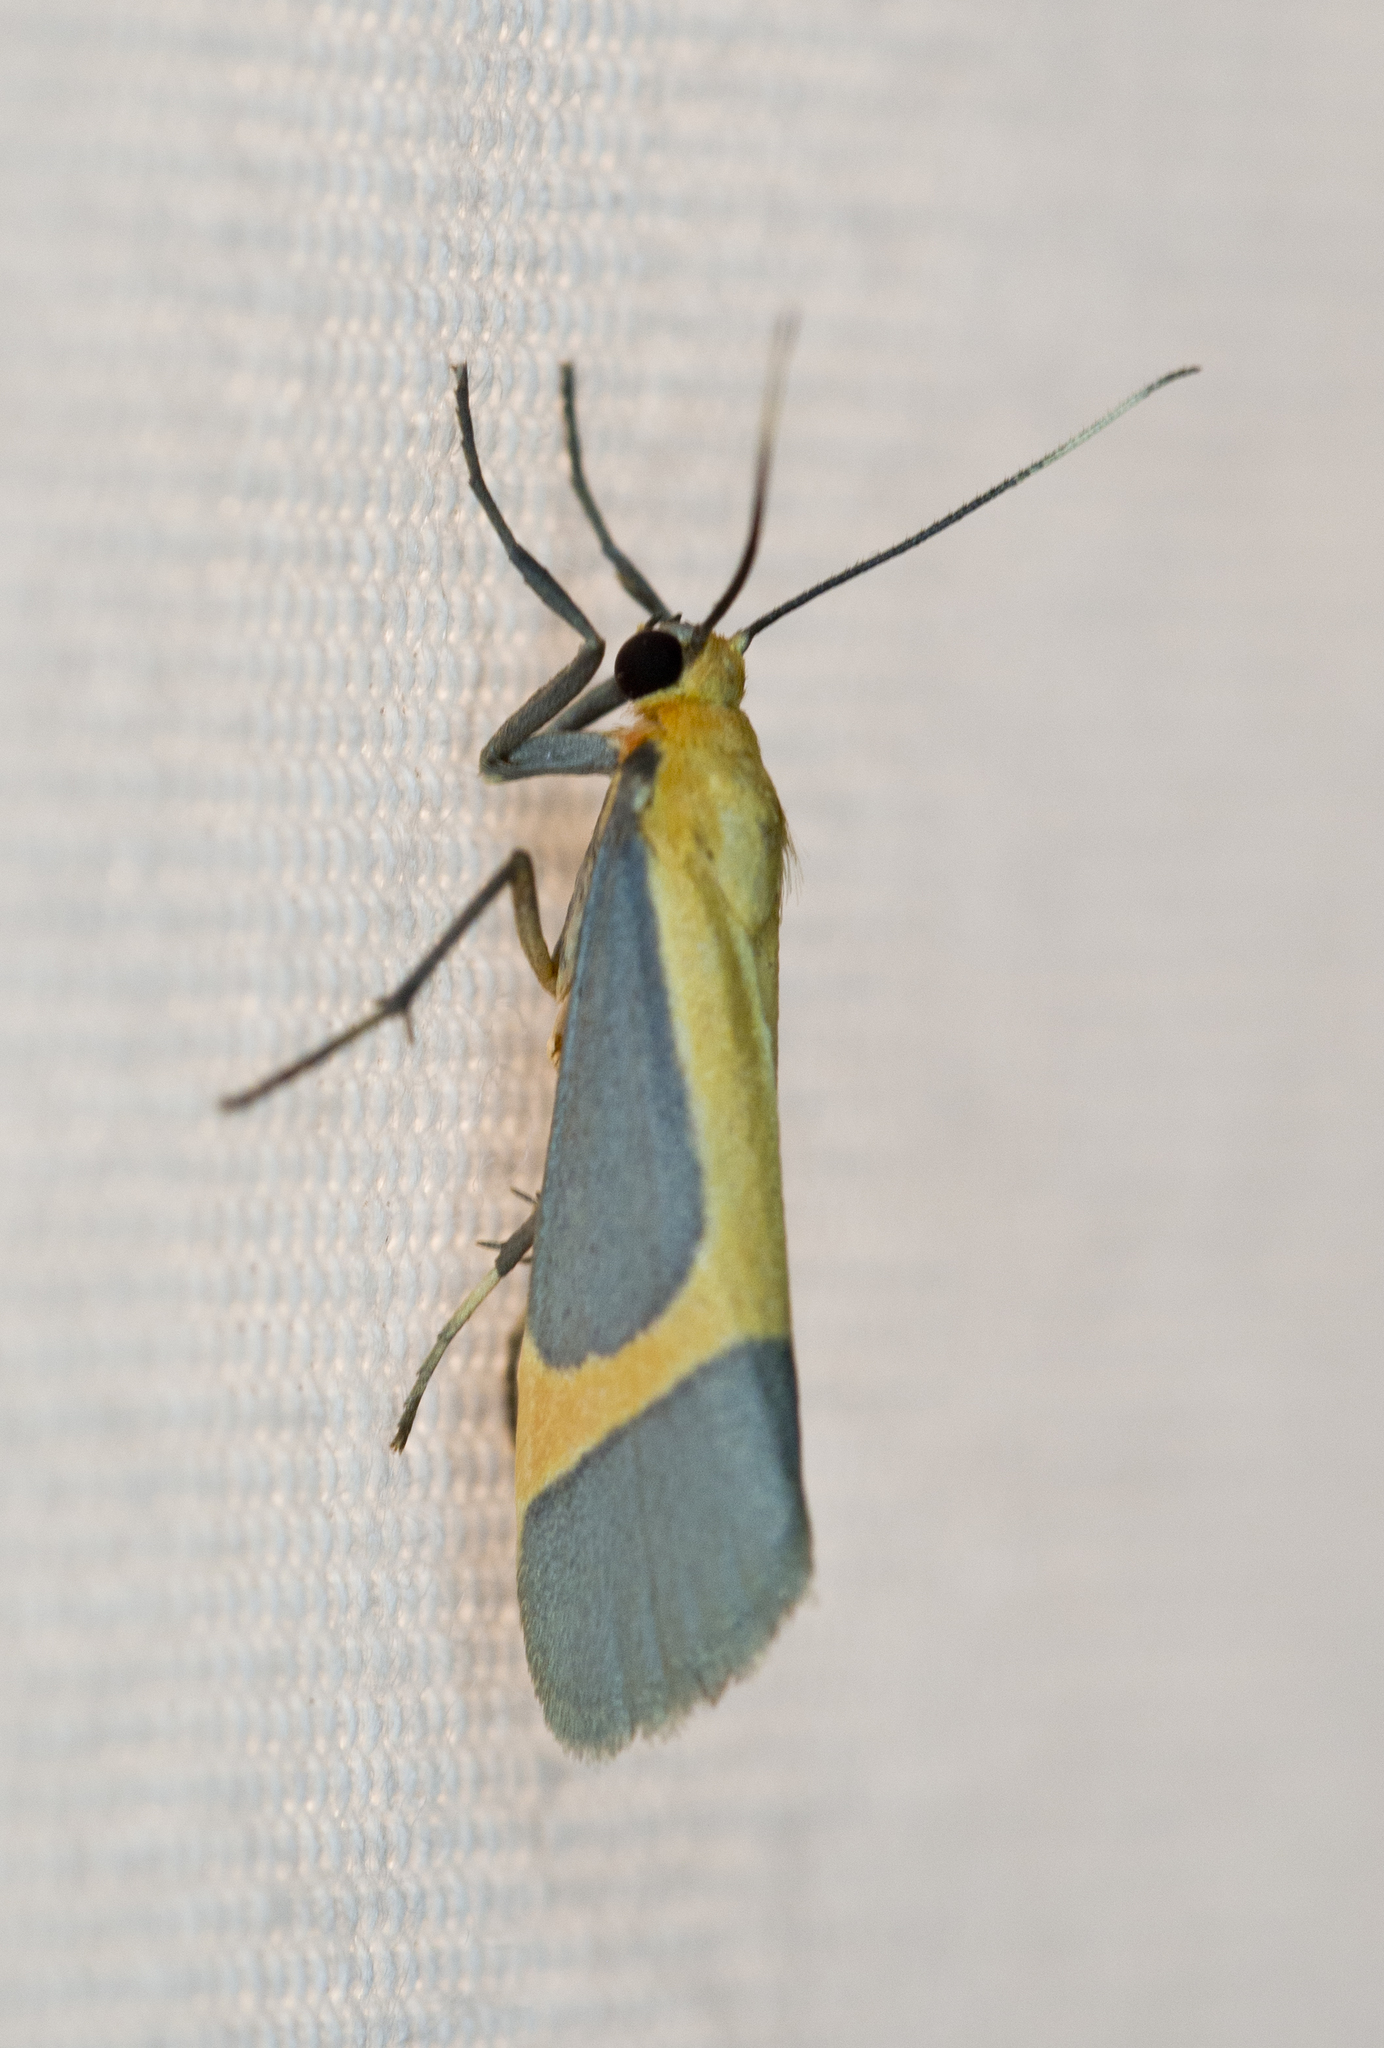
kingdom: Animalia
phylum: Arthropoda
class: Insecta
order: Lepidoptera
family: Erebidae
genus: Cisthene
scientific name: Cisthene angelus
